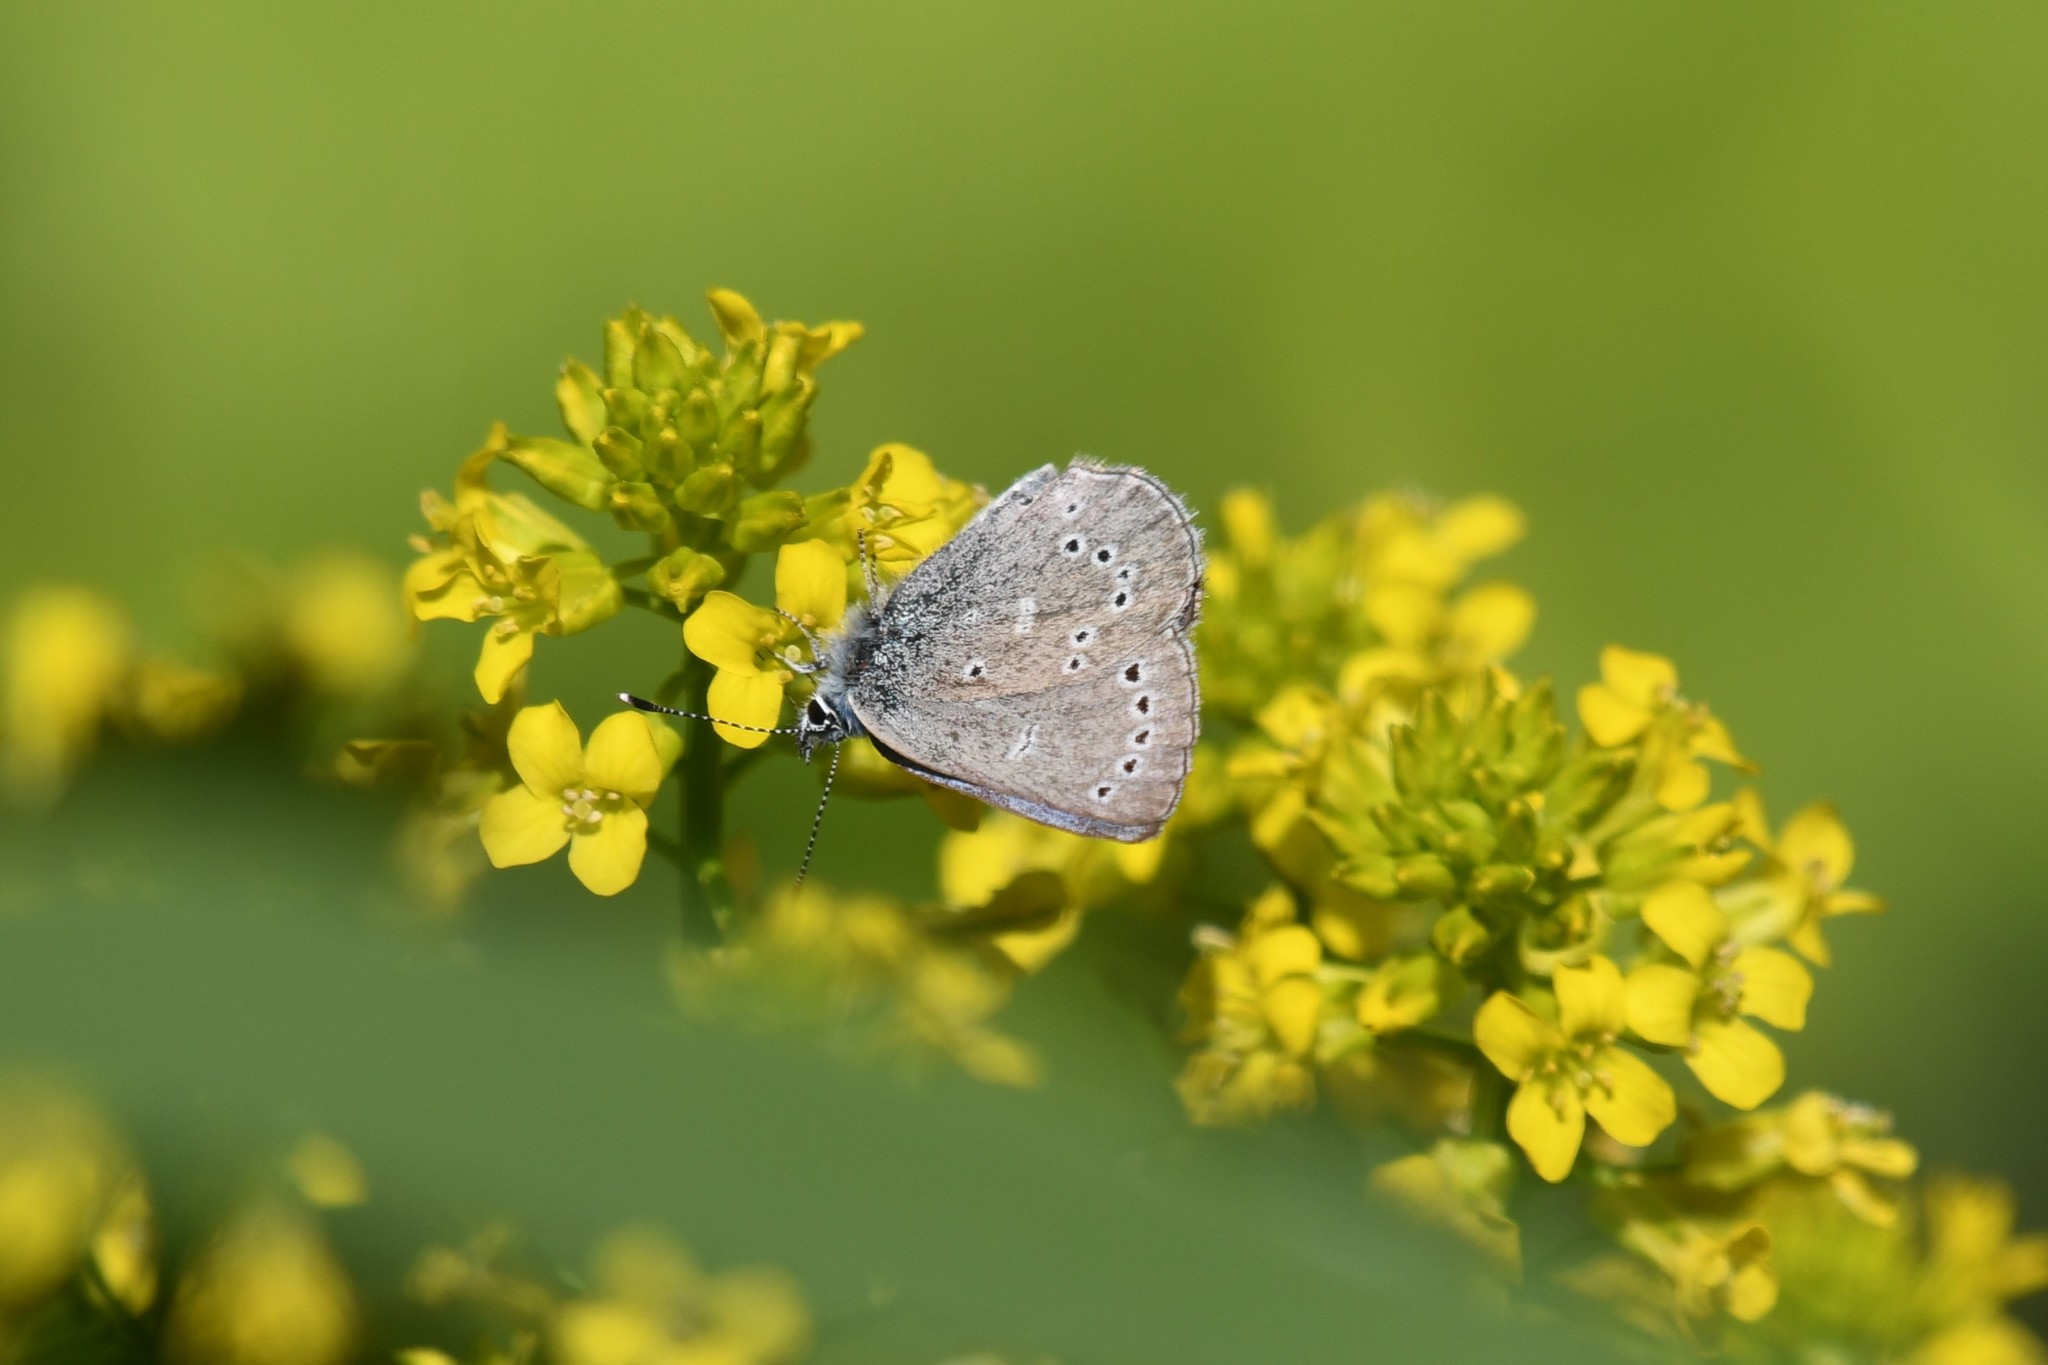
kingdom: Animalia
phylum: Arthropoda
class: Insecta
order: Lepidoptera
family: Lycaenidae
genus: Glaucopsyche
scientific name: Glaucopsyche lygdamus
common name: Silvery blue
